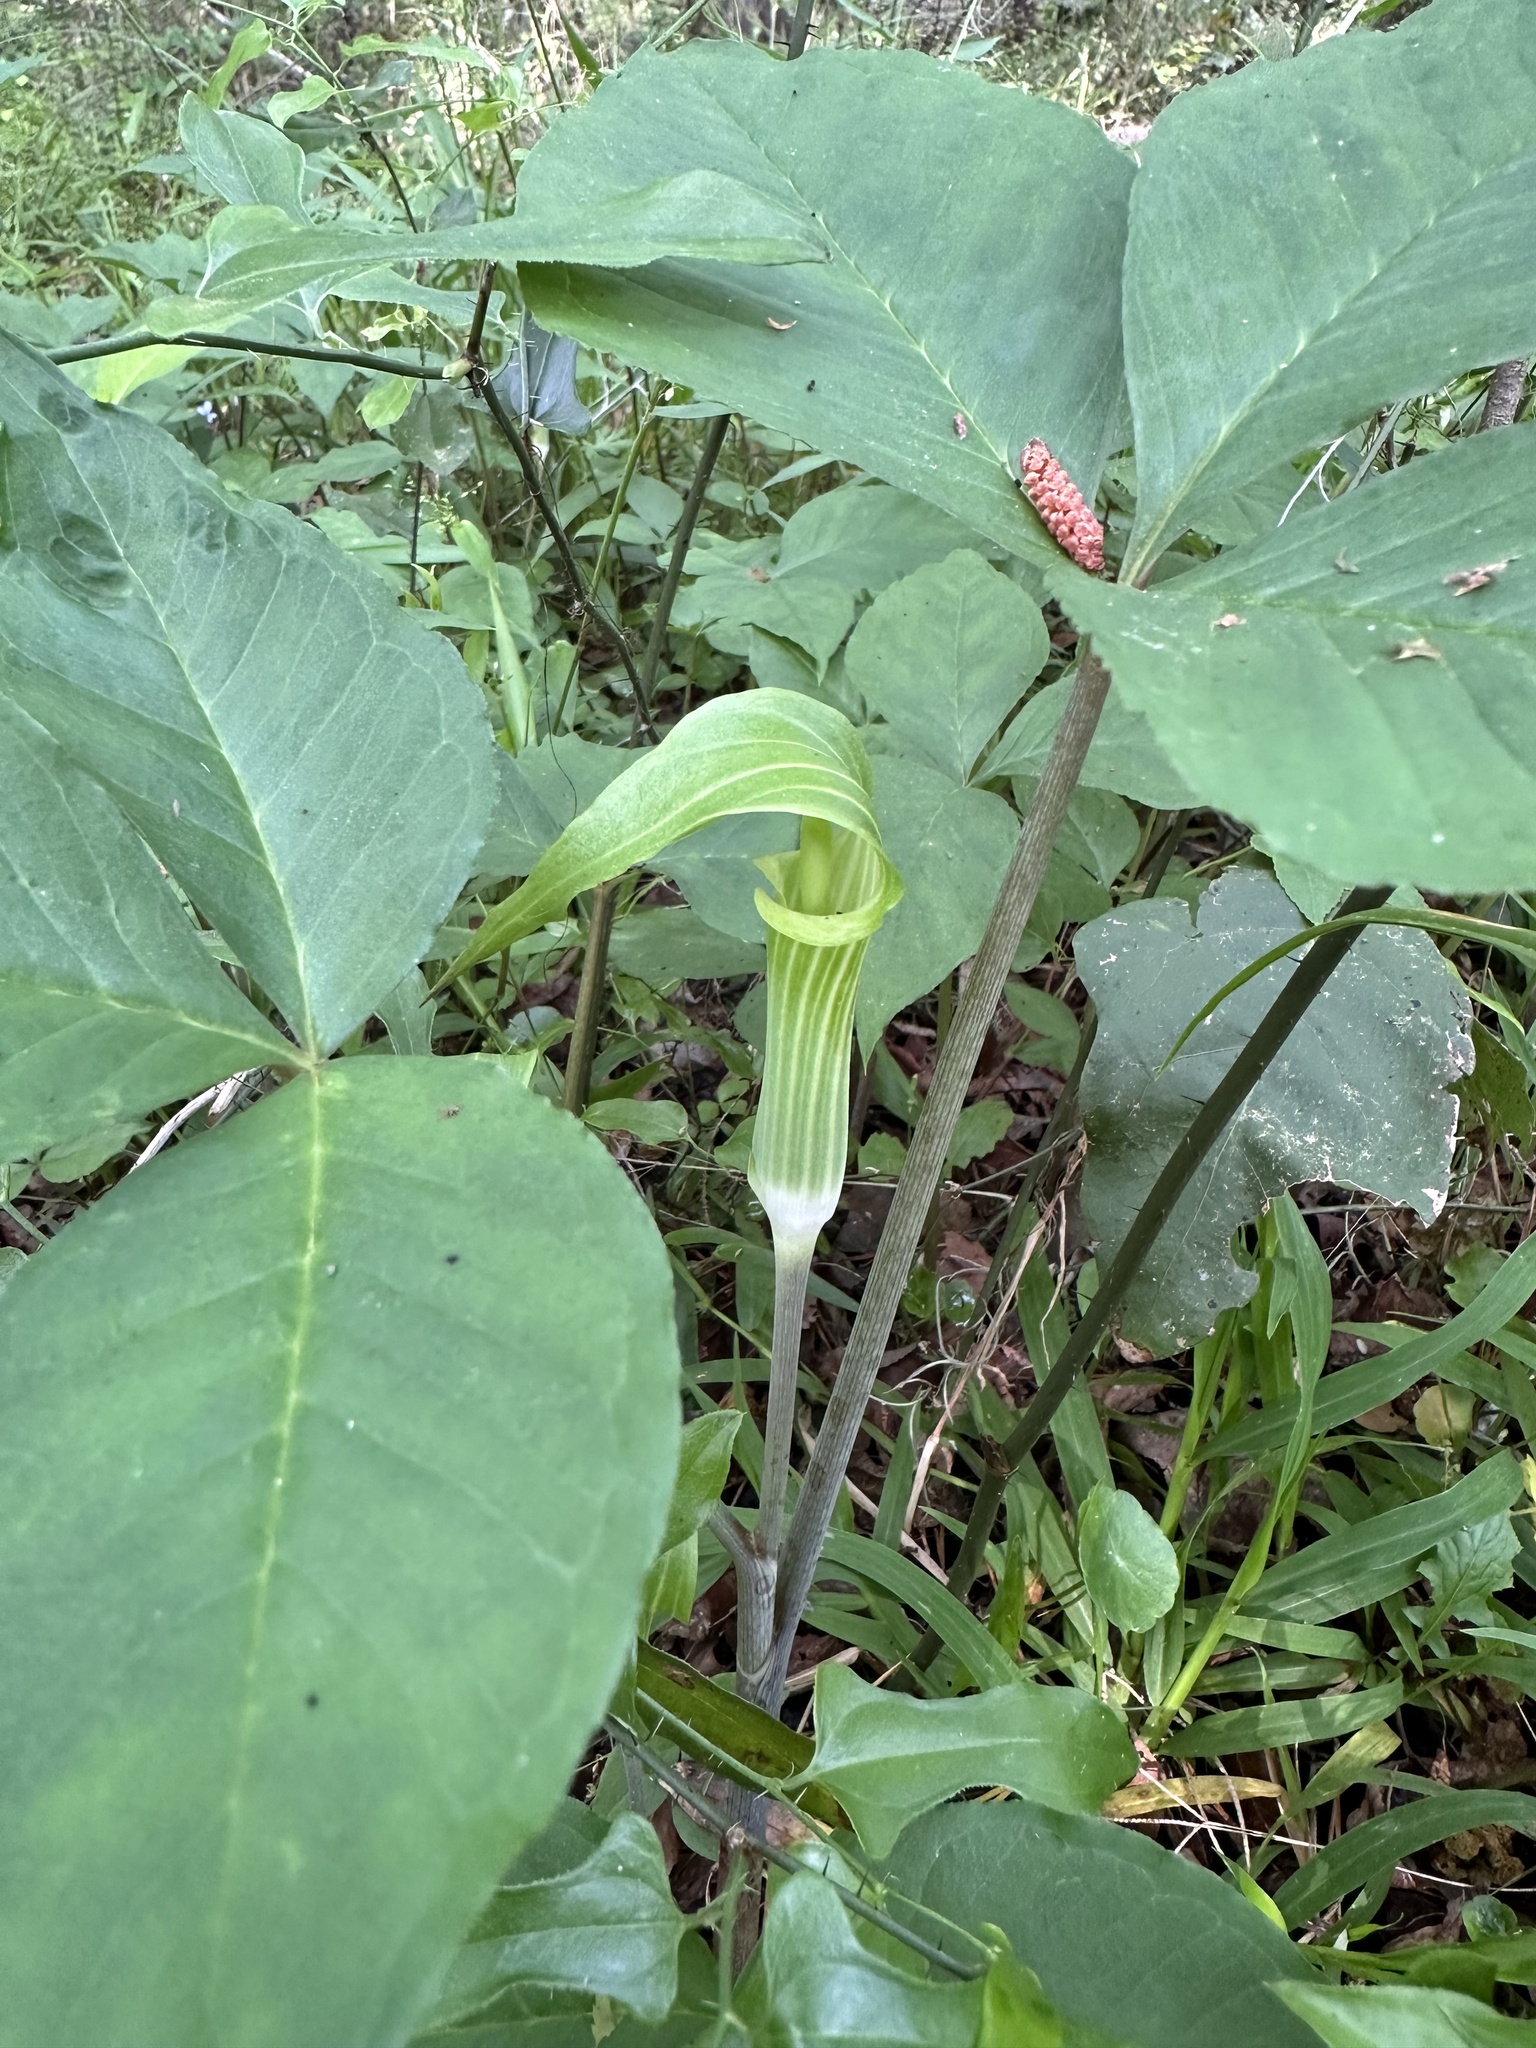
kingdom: Plantae
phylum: Tracheophyta
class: Liliopsida
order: Alismatales
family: Araceae
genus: Arisaema
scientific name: Arisaema acuminatum
